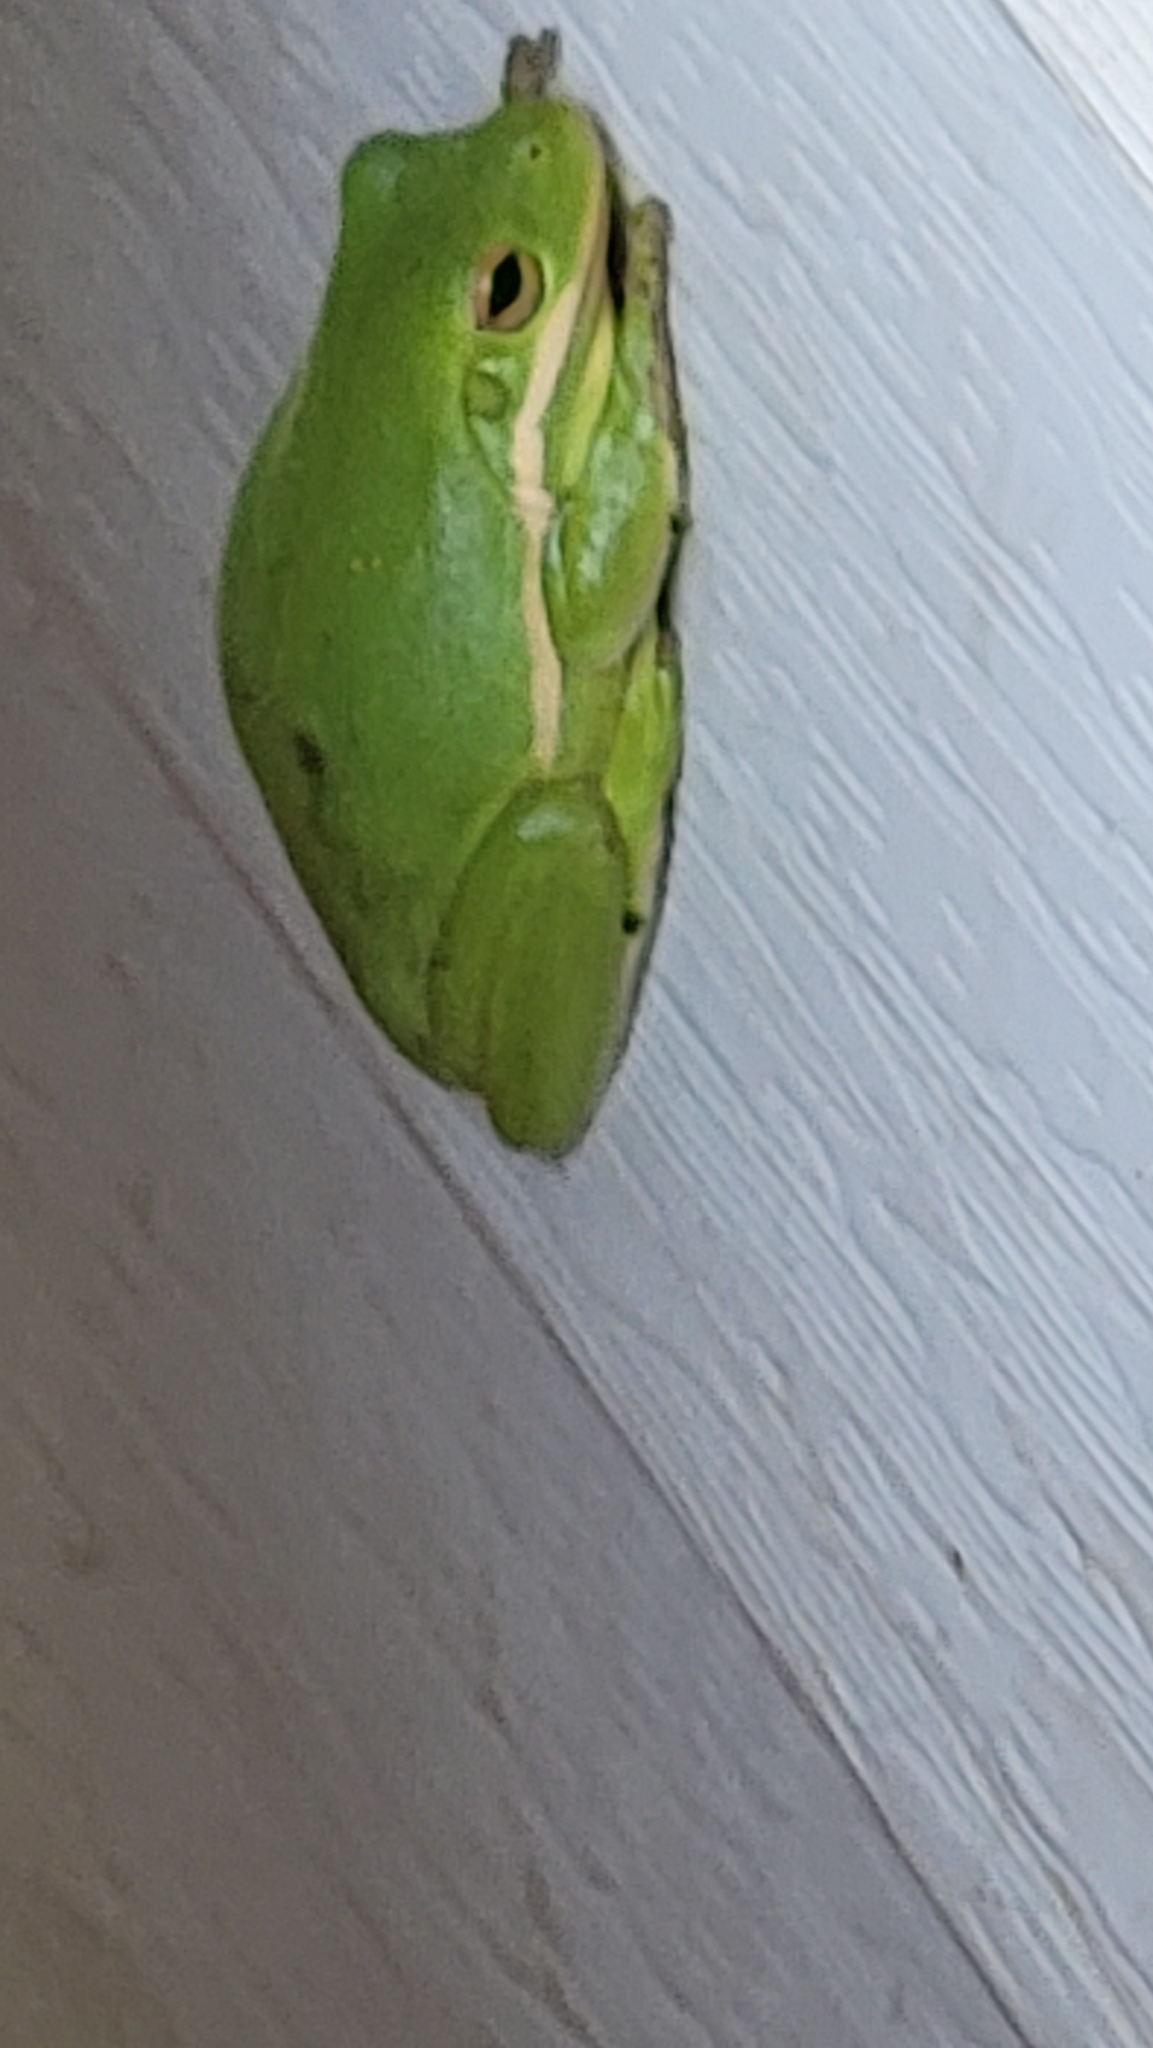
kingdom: Animalia
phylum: Chordata
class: Amphibia
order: Anura
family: Hylidae
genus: Dryophytes
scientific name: Dryophytes cinereus
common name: Green treefrog
